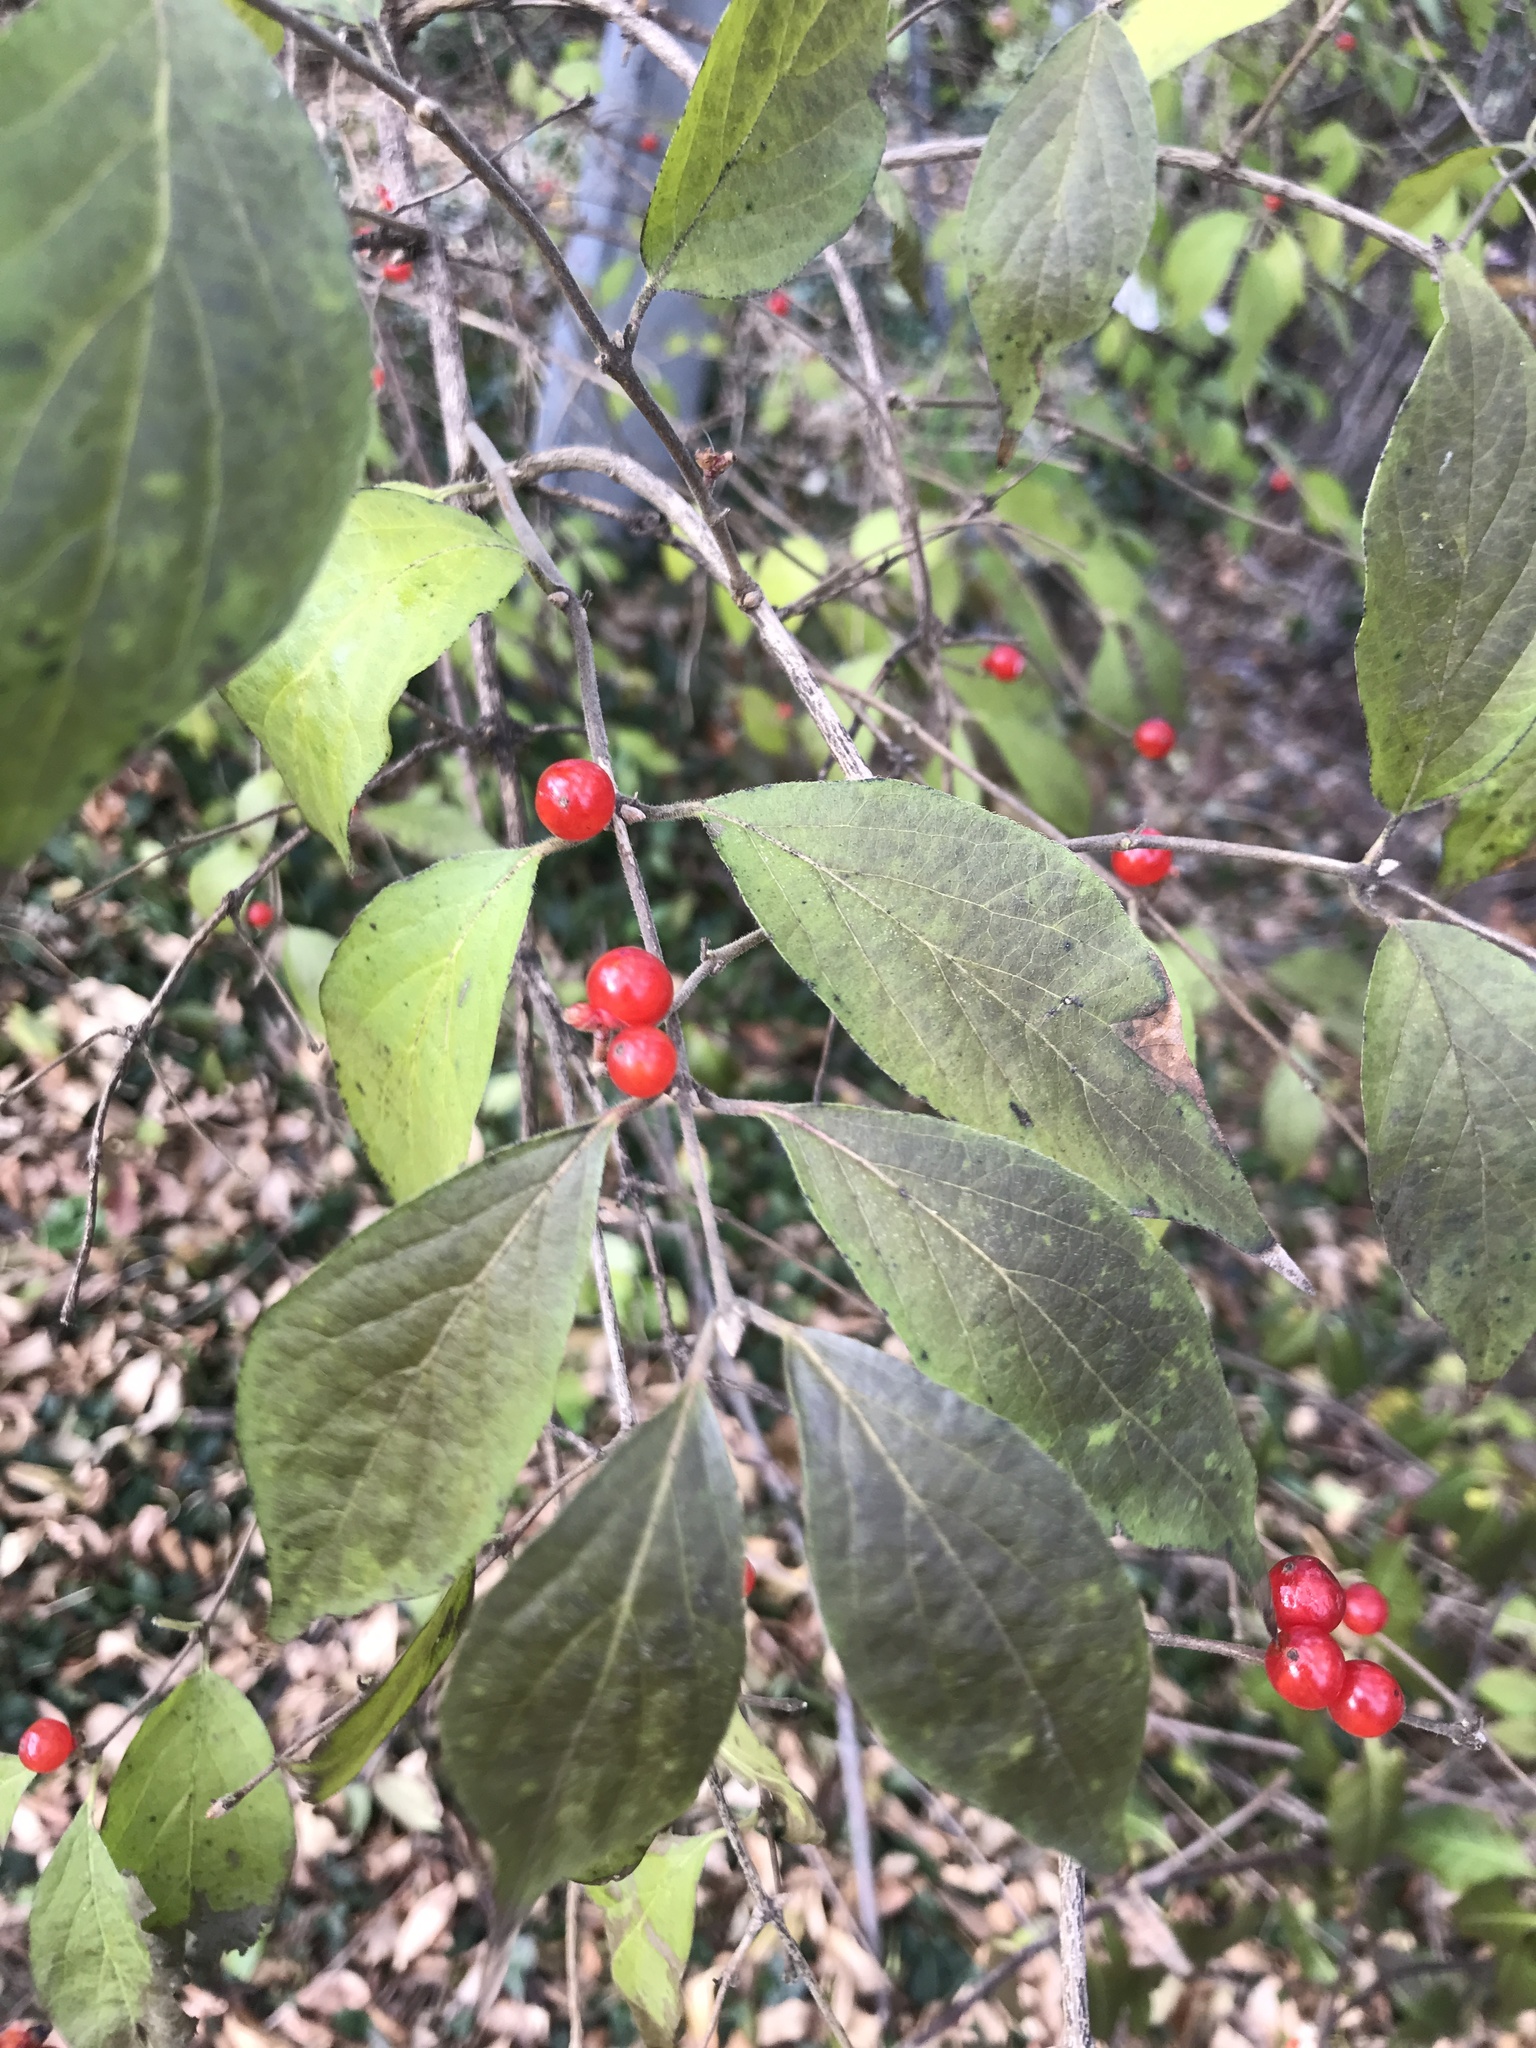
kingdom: Plantae
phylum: Tracheophyta
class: Magnoliopsida
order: Dipsacales
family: Caprifoliaceae
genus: Lonicera
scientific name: Lonicera maackii
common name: Amur honeysuckle
